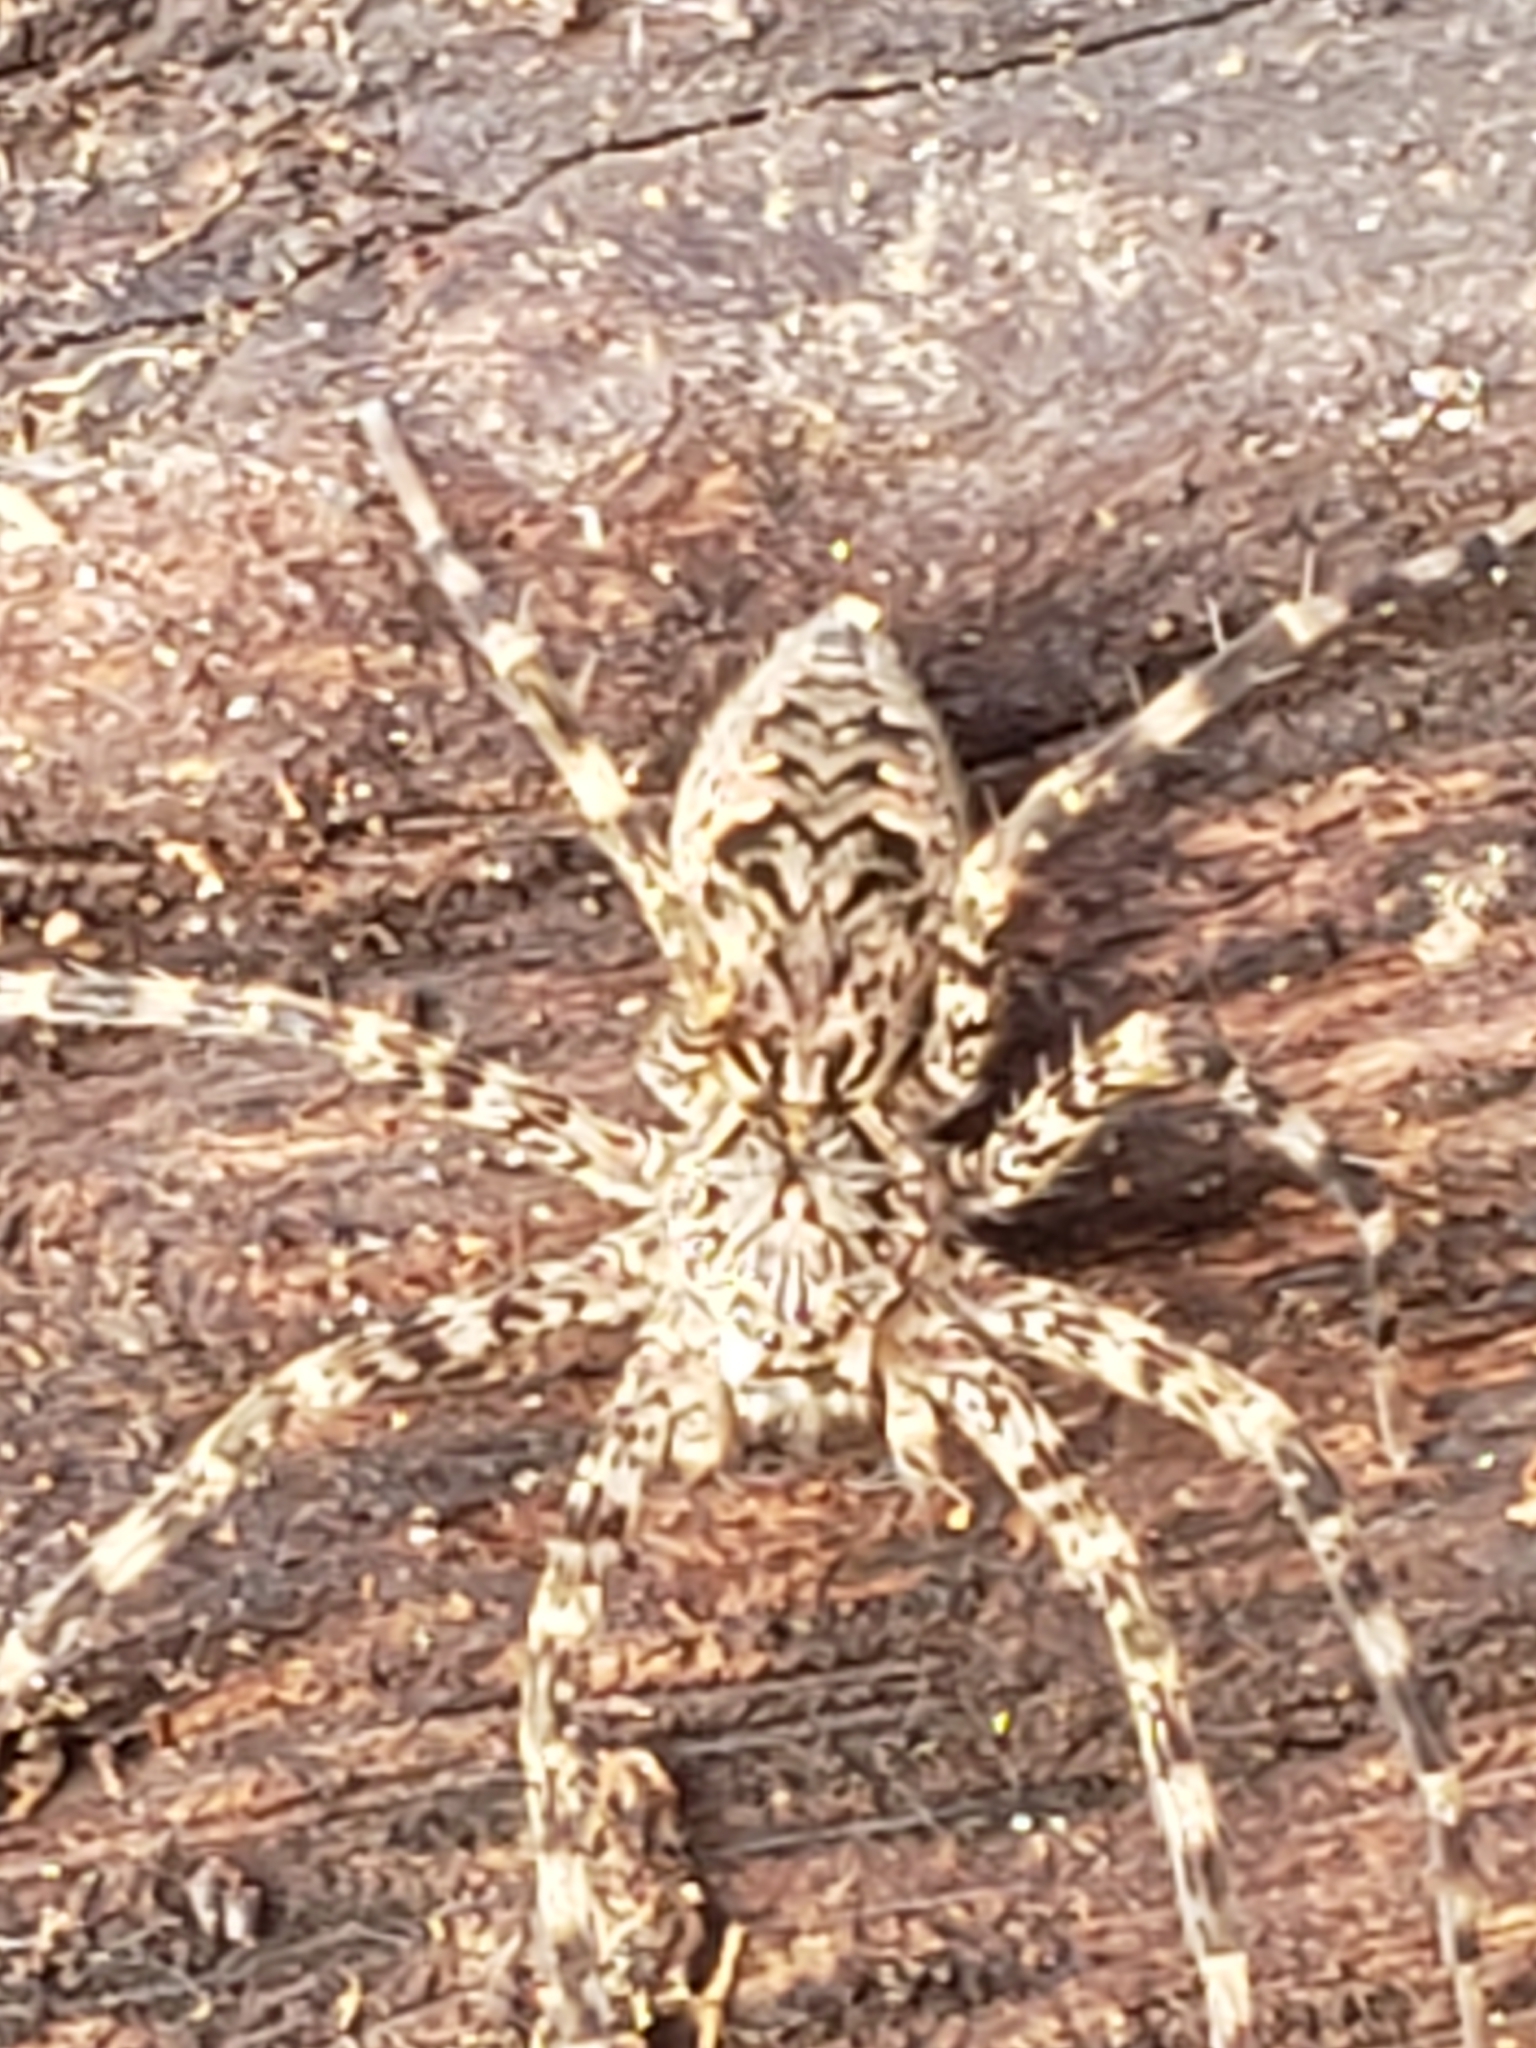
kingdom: Animalia
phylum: Arthropoda
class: Arachnida
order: Araneae
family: Pisauridae
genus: Dolomedes
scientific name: Dolomedes tenebrosus
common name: Dark fishing spider
